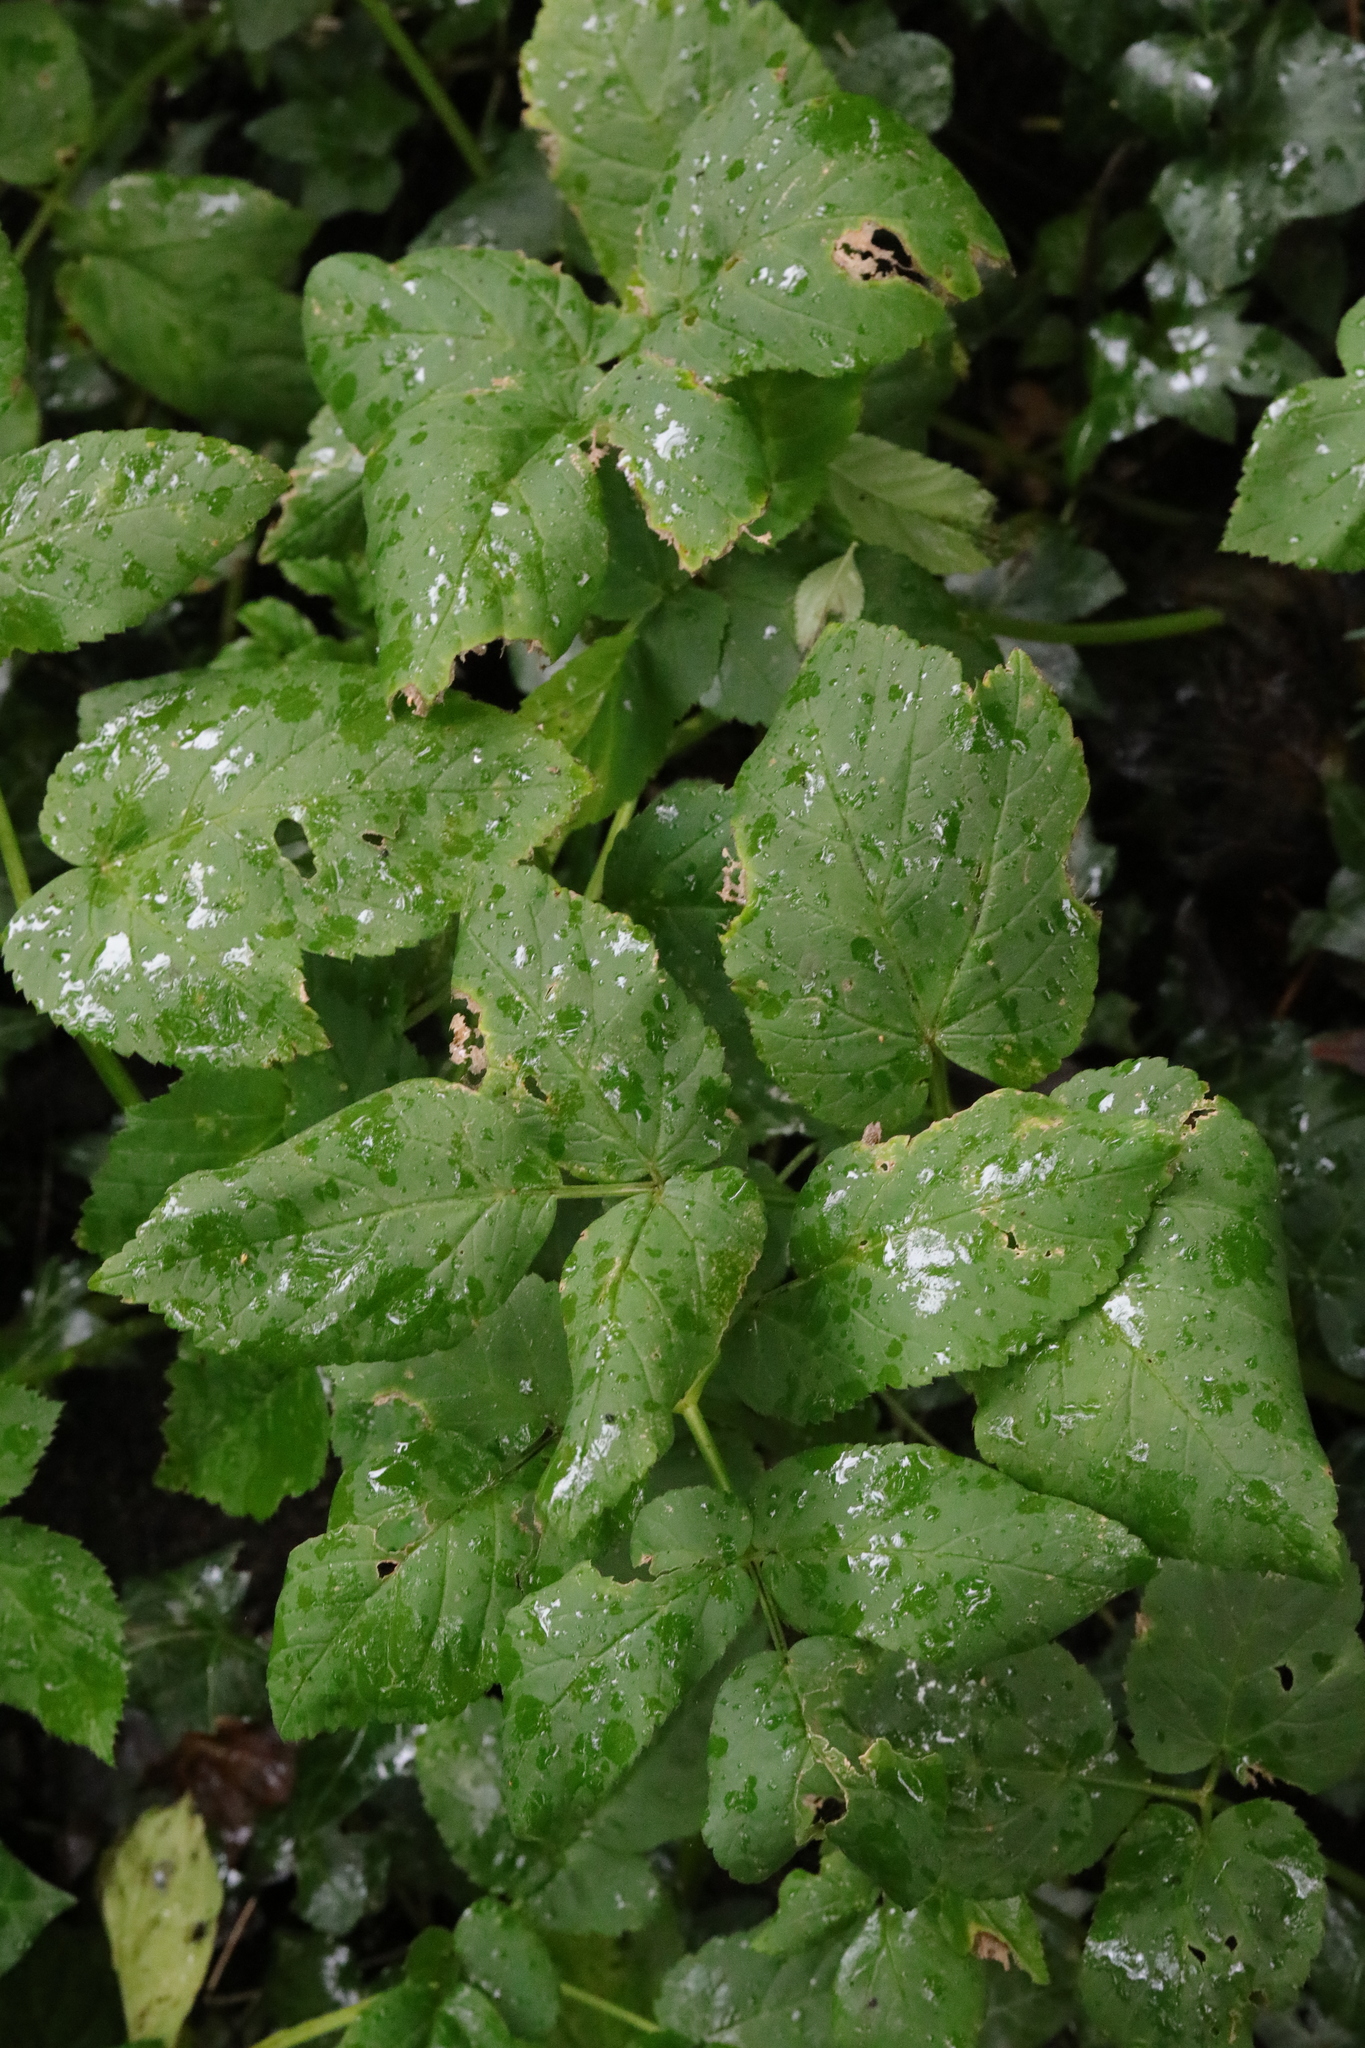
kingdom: Plantae
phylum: Tracheophyta
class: Magnoliopsida
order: Apiales
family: Apiaceae
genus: Aegopodium
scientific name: Aegopodium podagraria
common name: Ground-elder
